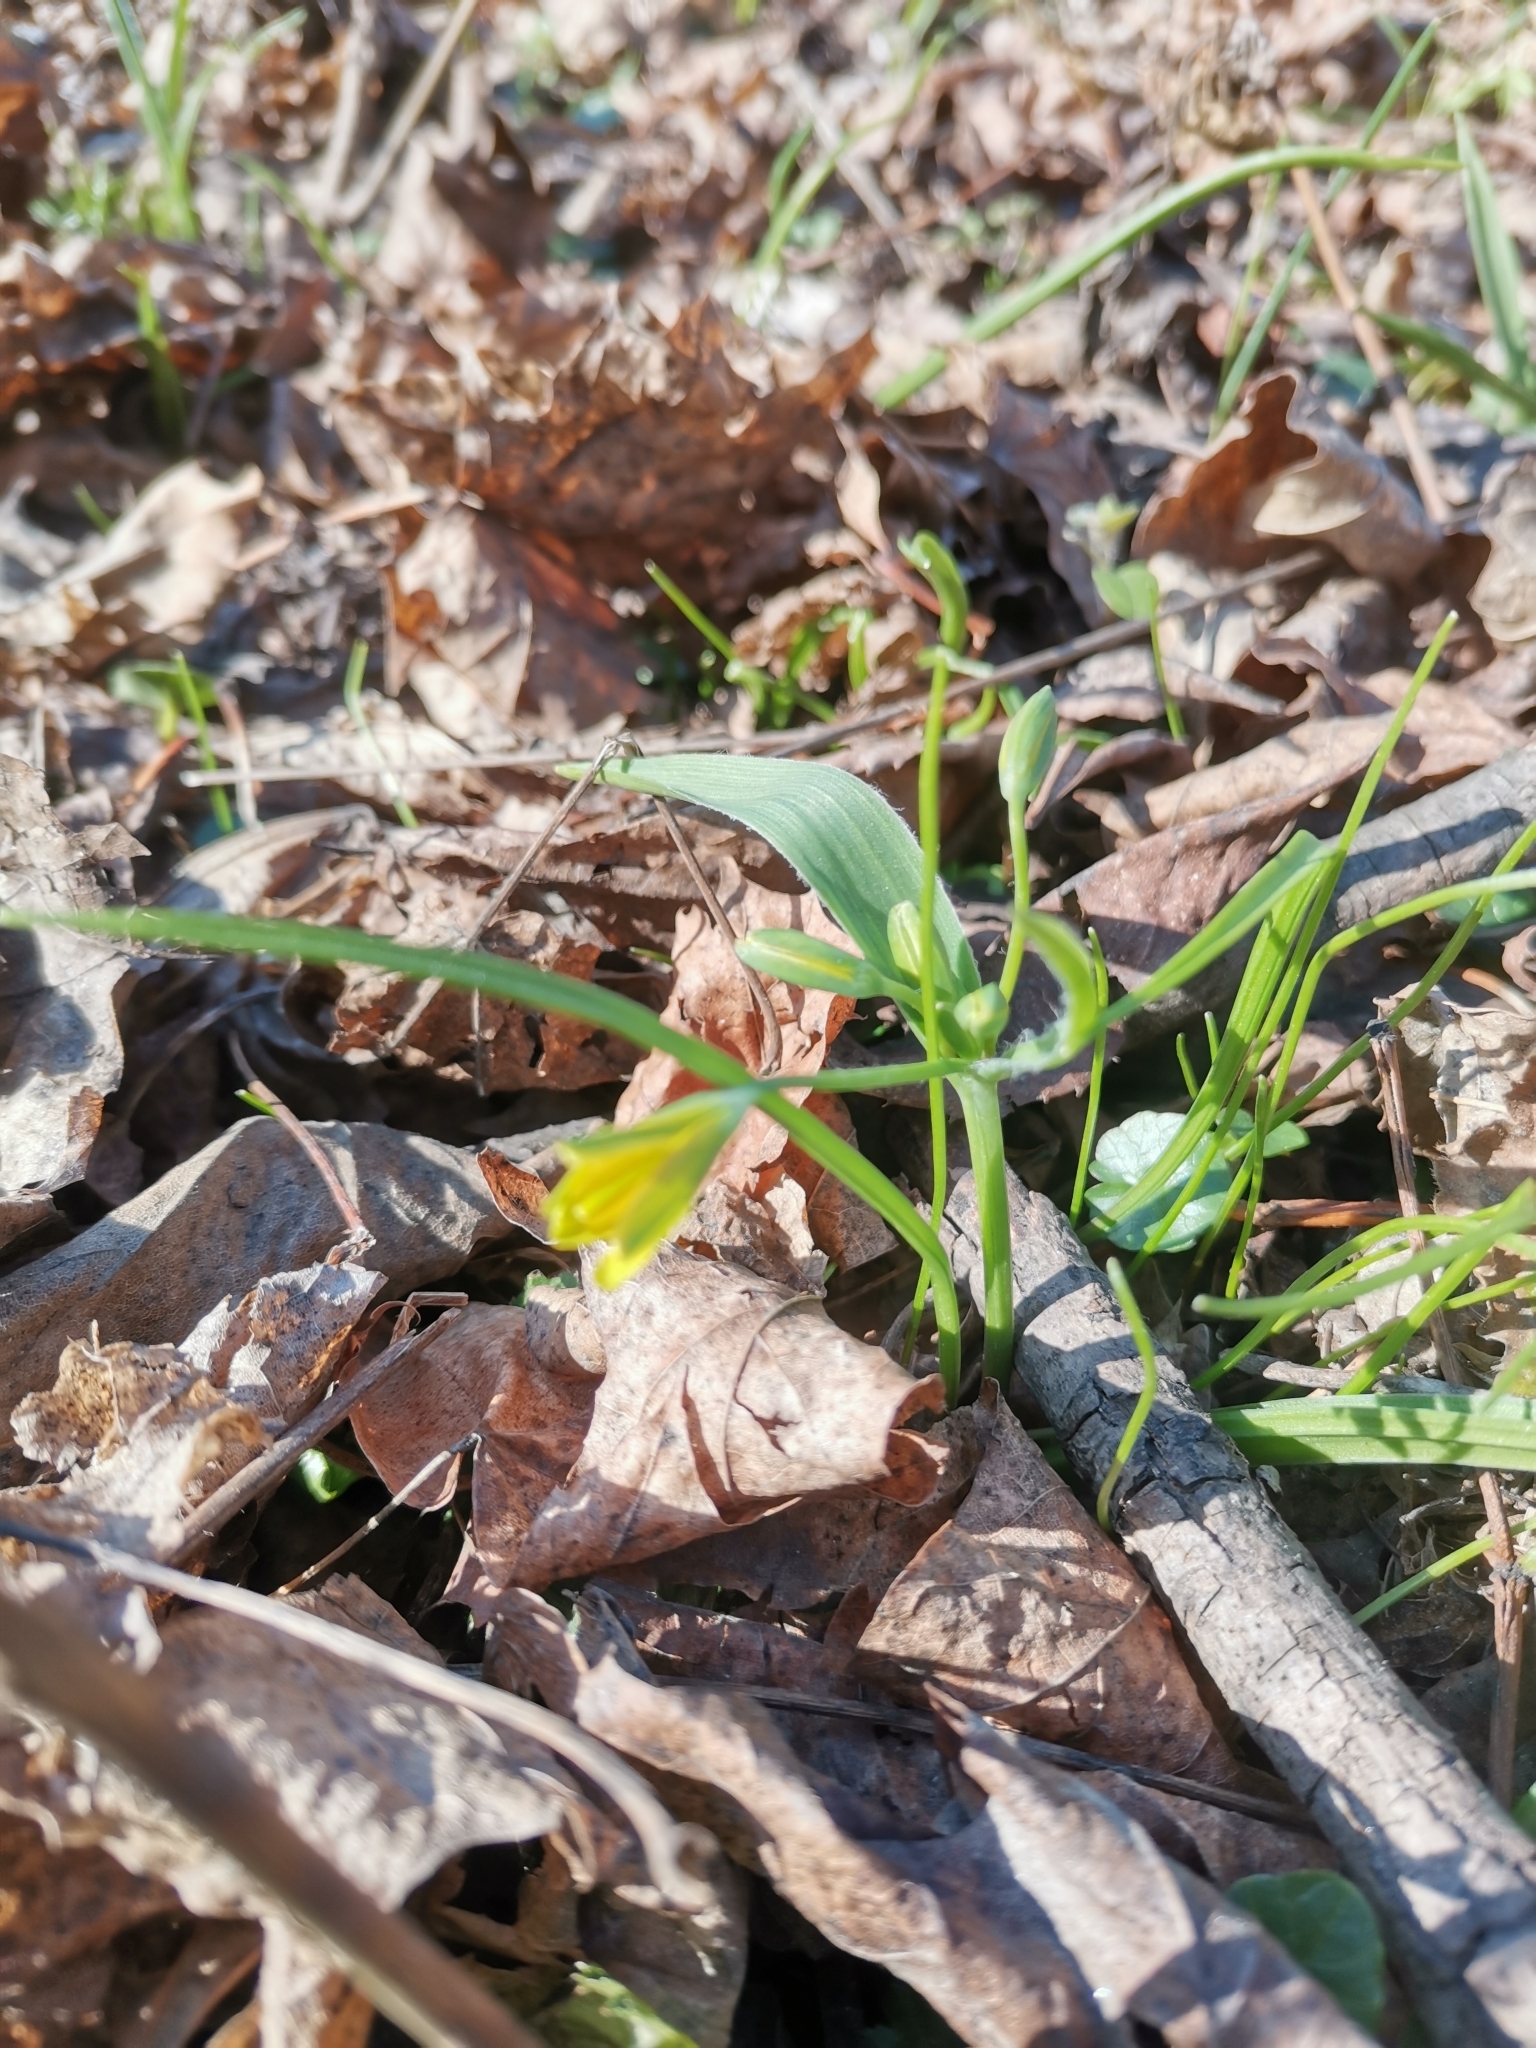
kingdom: Plantae
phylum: Tracheophyta
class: Liliopsida
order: Liliales
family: Liliaceae
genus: Gagea
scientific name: Gagea lutea
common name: Yellow star-of-bethlehem
